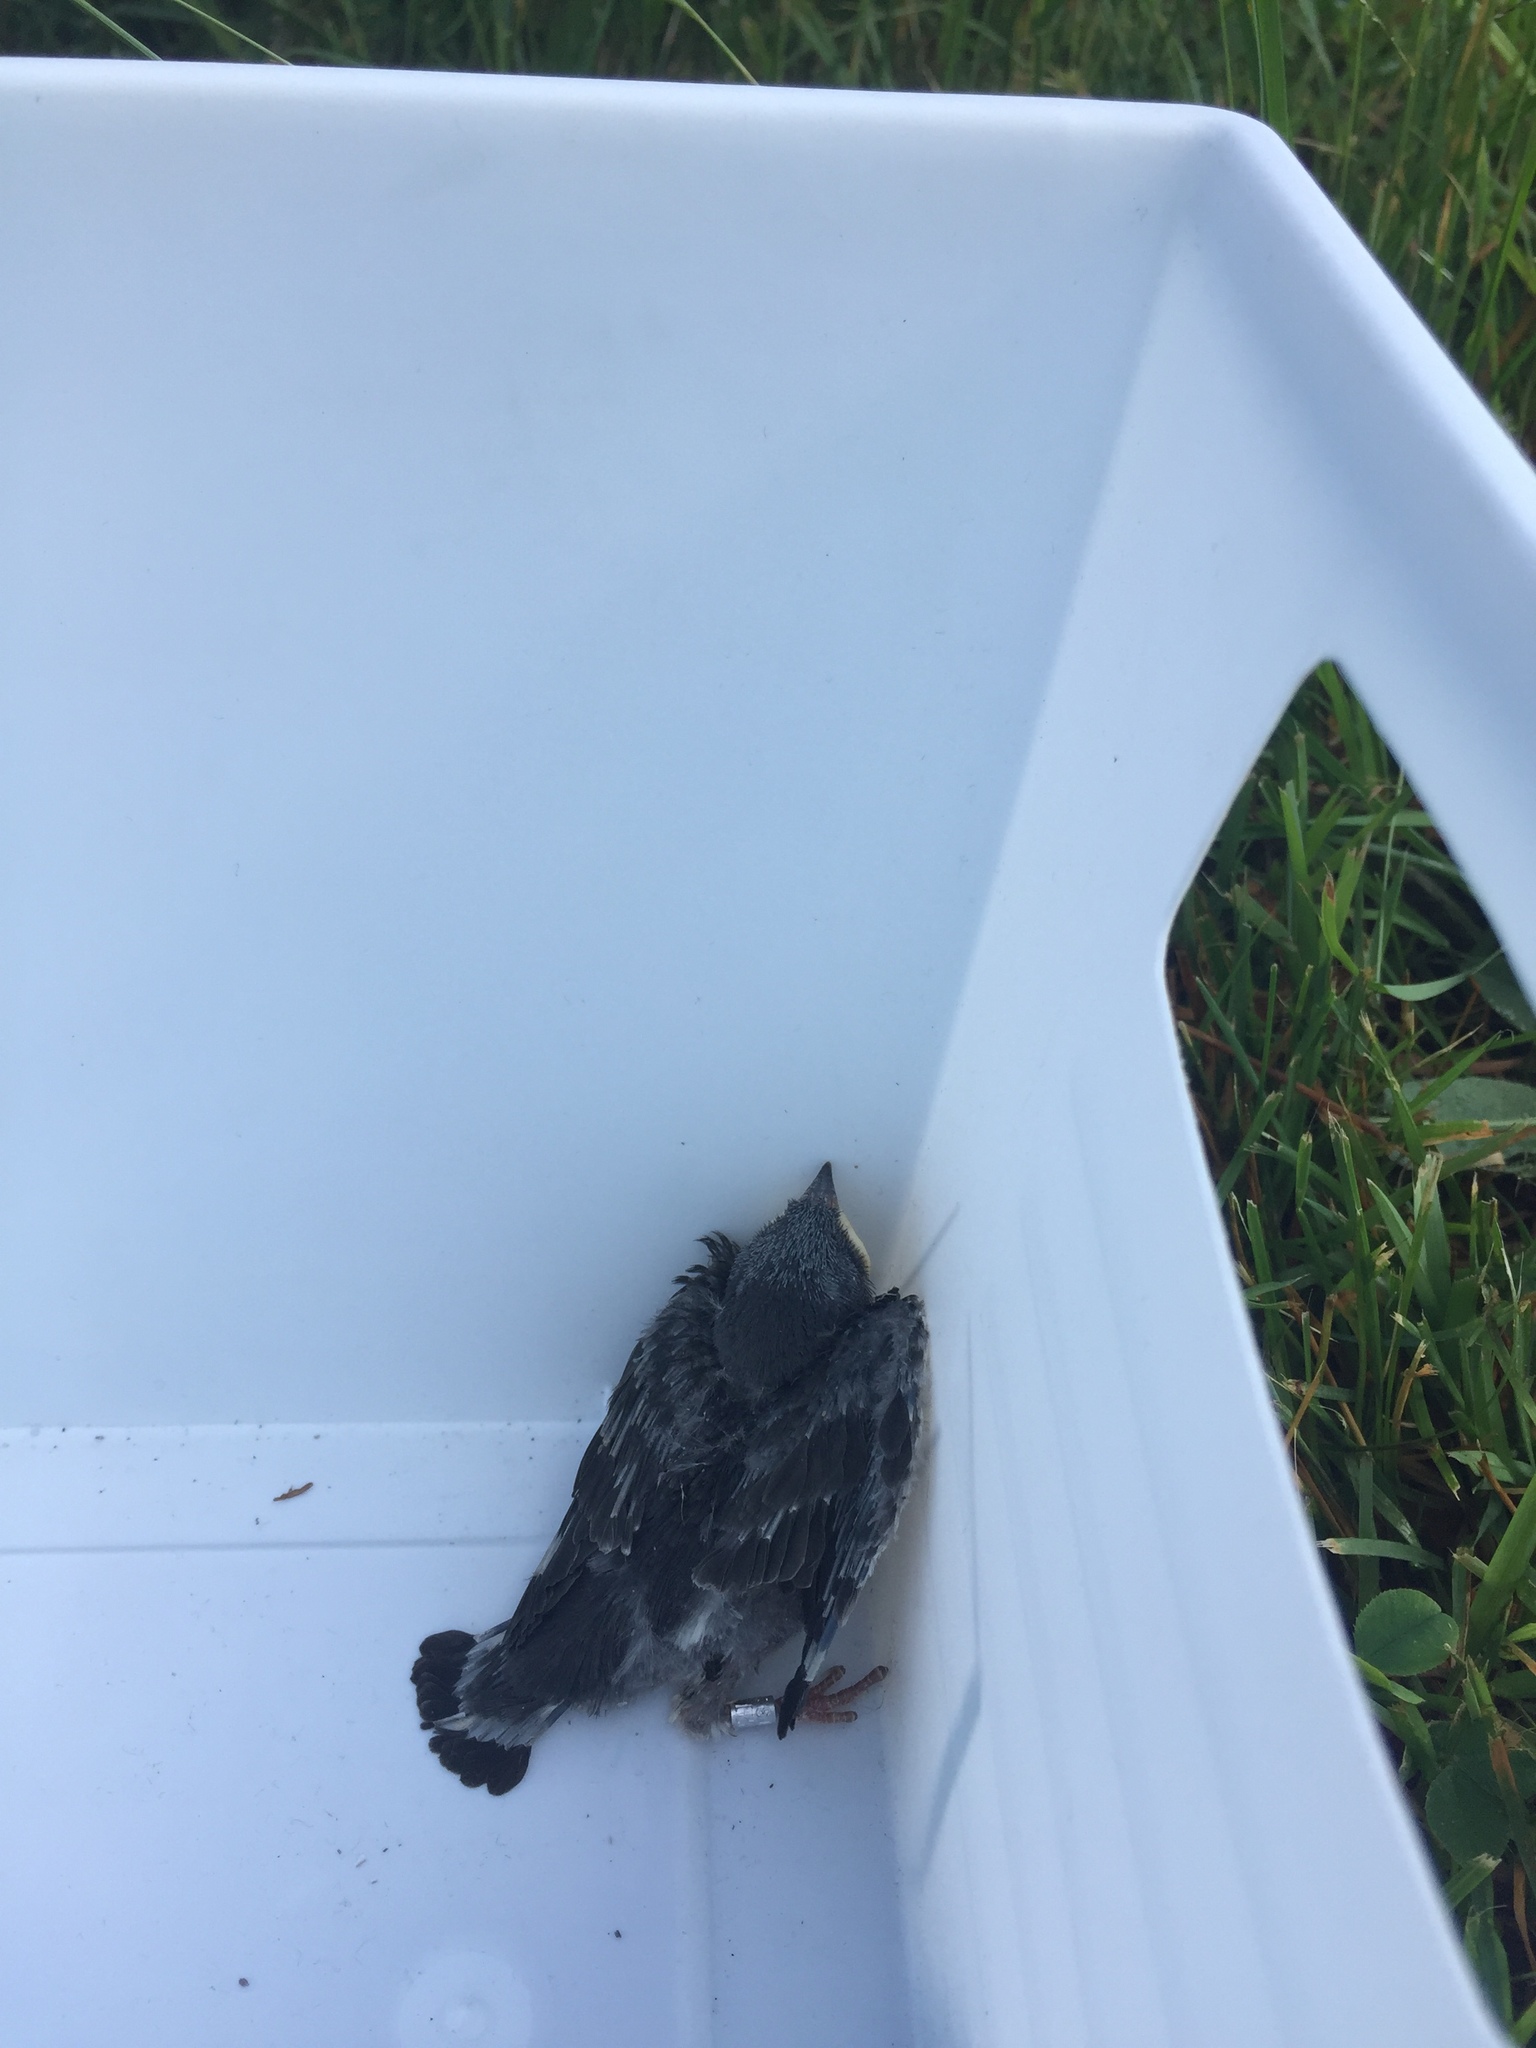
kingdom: Animalia
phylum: Chordata
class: Aves
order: Passeriformes
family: Hirundinidae
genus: Tachycineta
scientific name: Tachycineta bicolor
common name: Tree swallow
